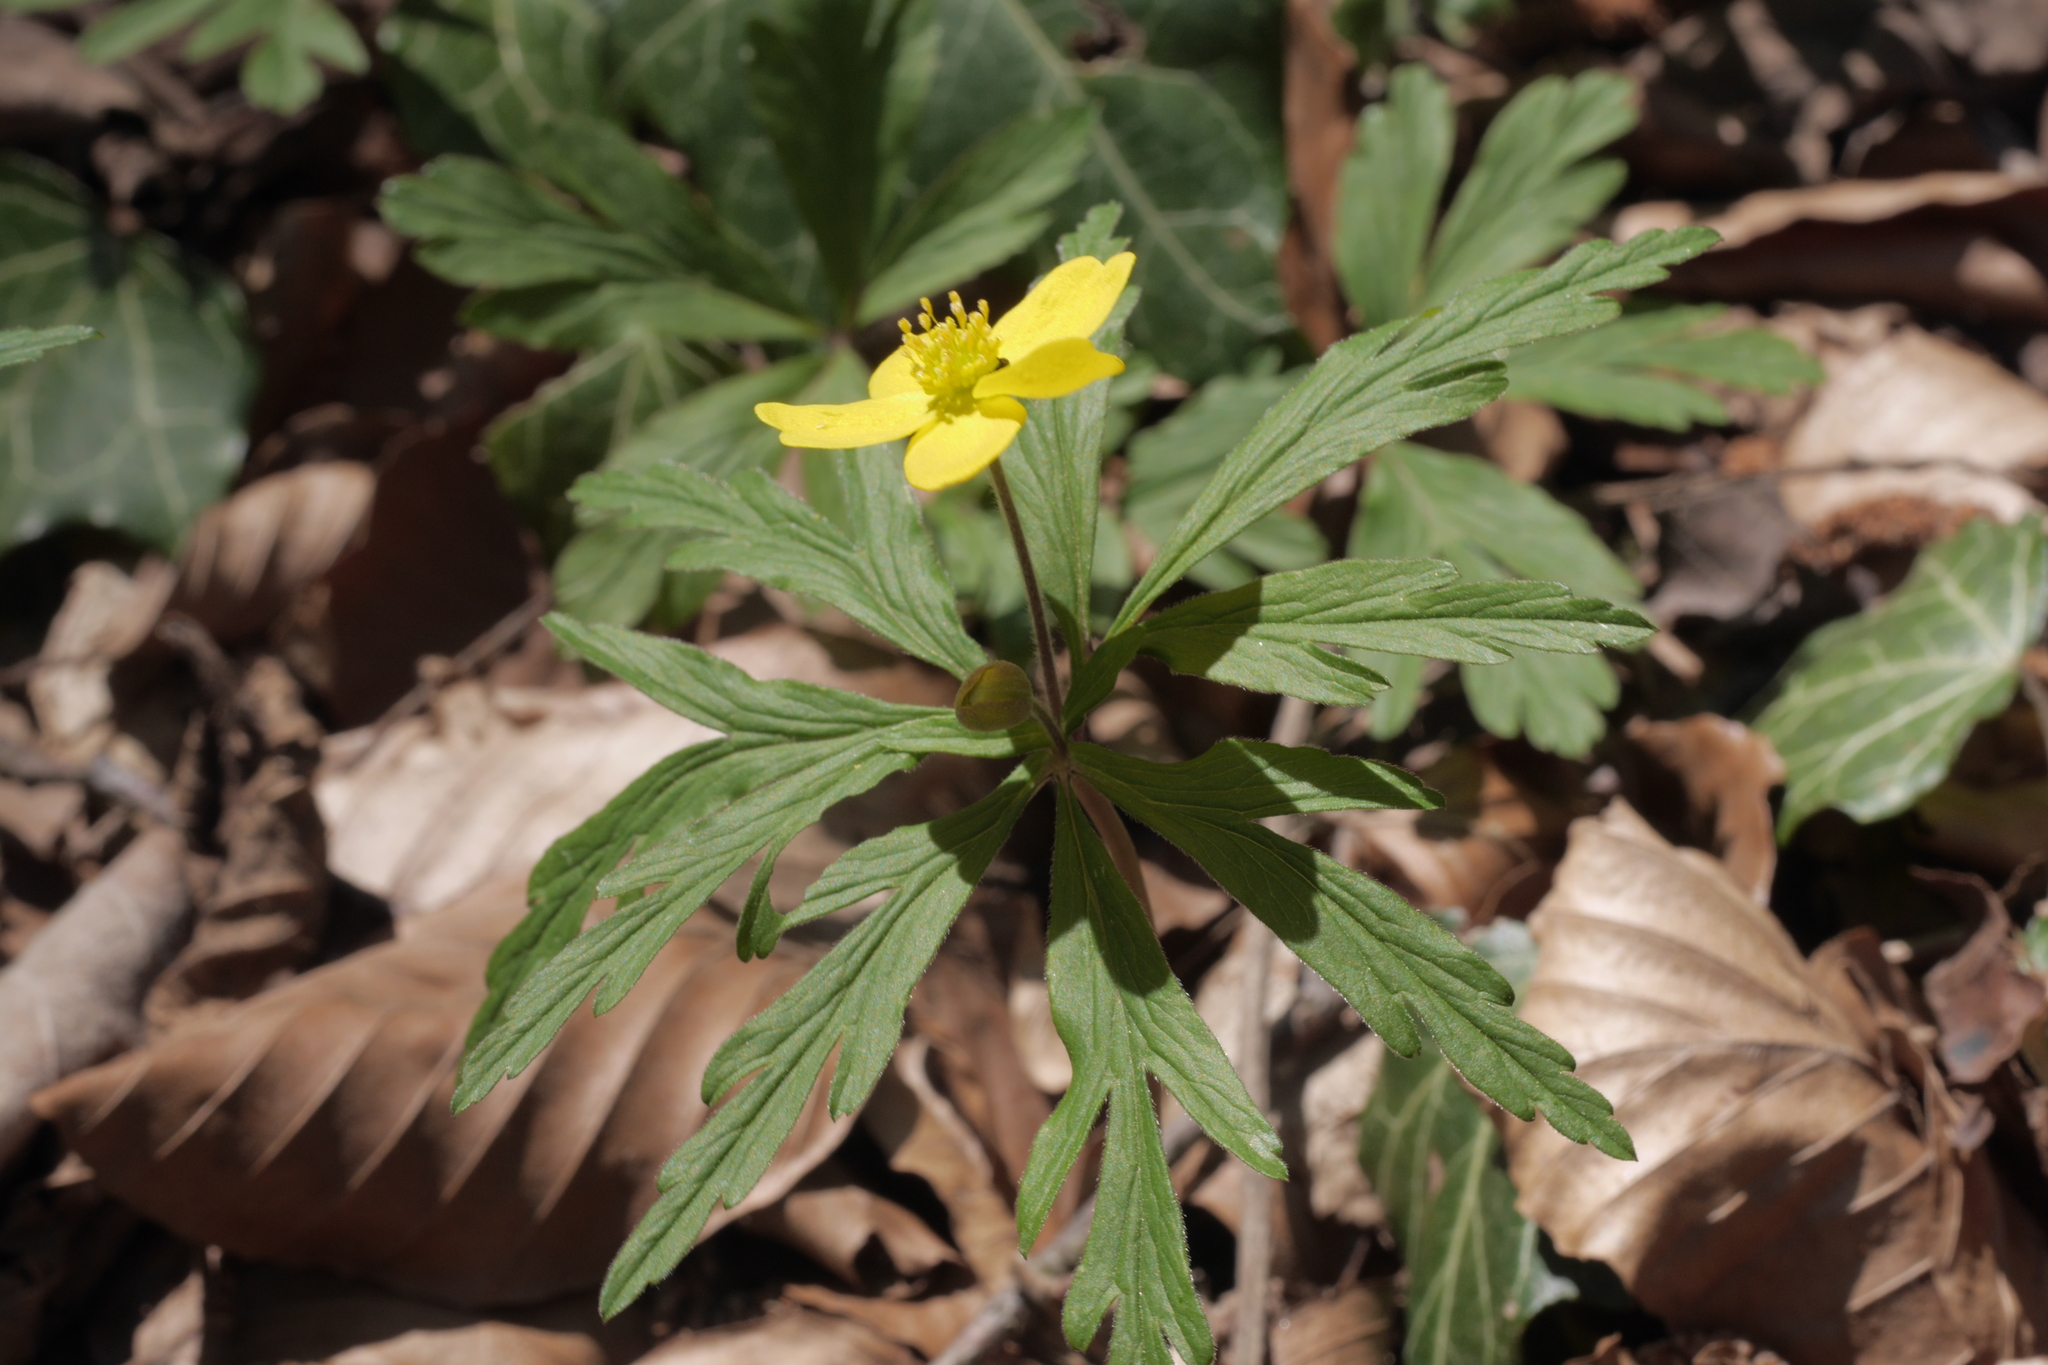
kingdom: Plantae
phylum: Tracheophyta
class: Magnoliopsida
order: Ranunculales
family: Ranunculaceae
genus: Anemone
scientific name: Anemone ranunculoides
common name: Yellow anemone
